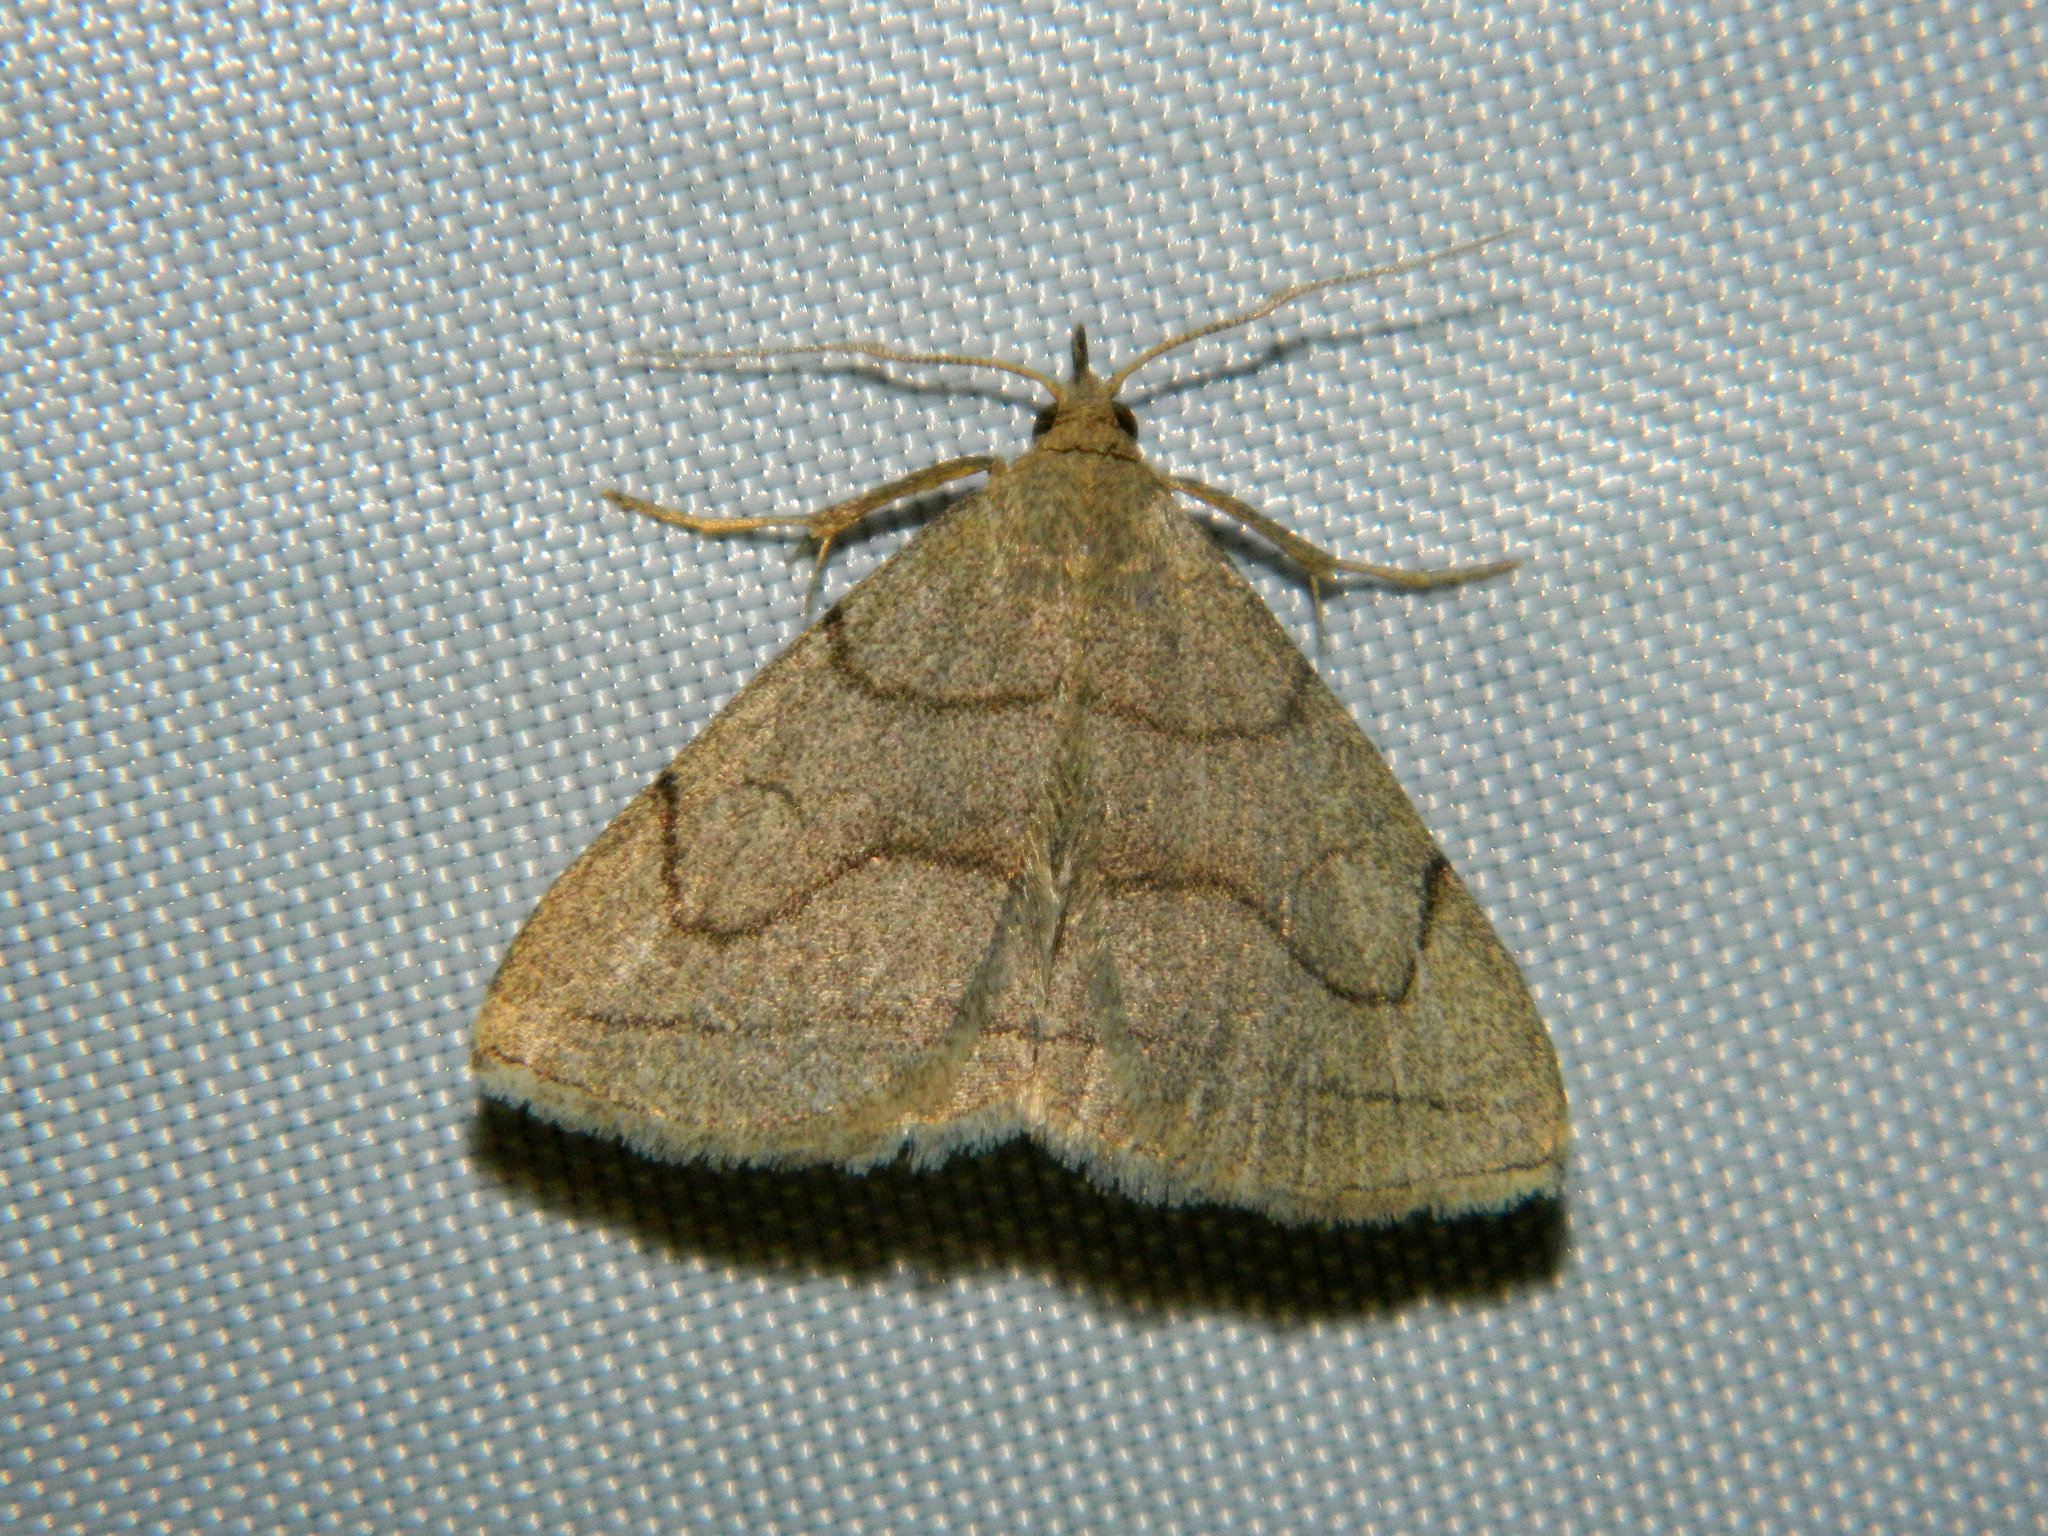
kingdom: Animalia
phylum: Arthropoda
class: Insecta
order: Lepidoptera
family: Erebidae
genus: Zanclognatha
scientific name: Zanclognatha pedipilalis
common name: Grayish fan-foot
